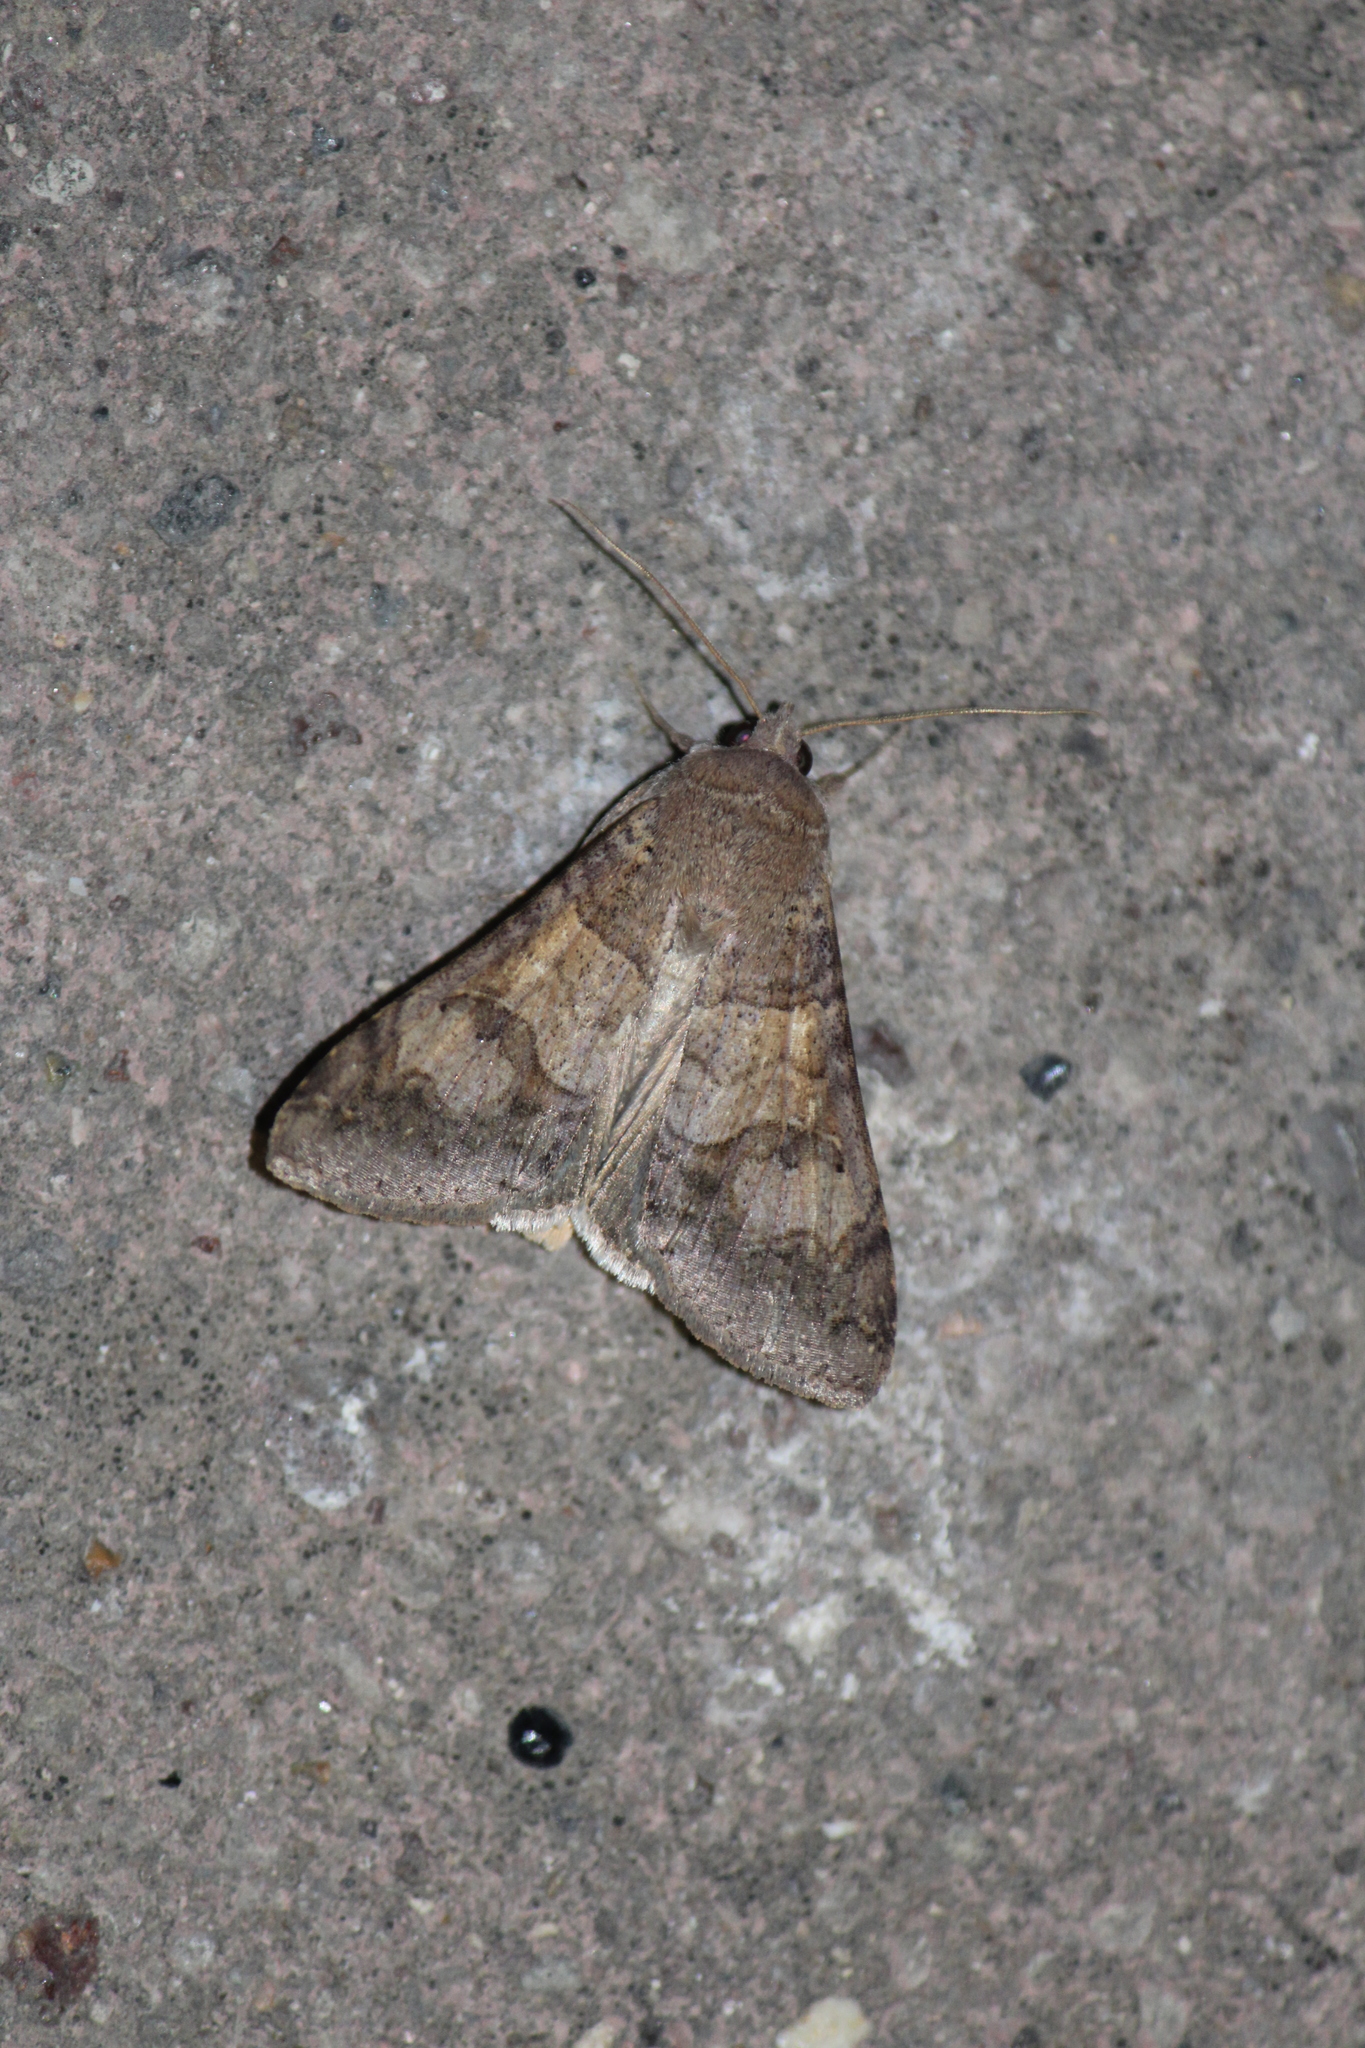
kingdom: Animalia
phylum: Arthropoda
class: Insecta
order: Lepidoptera
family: Erebidae
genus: Cissusa
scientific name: Cissusa inconspicua
